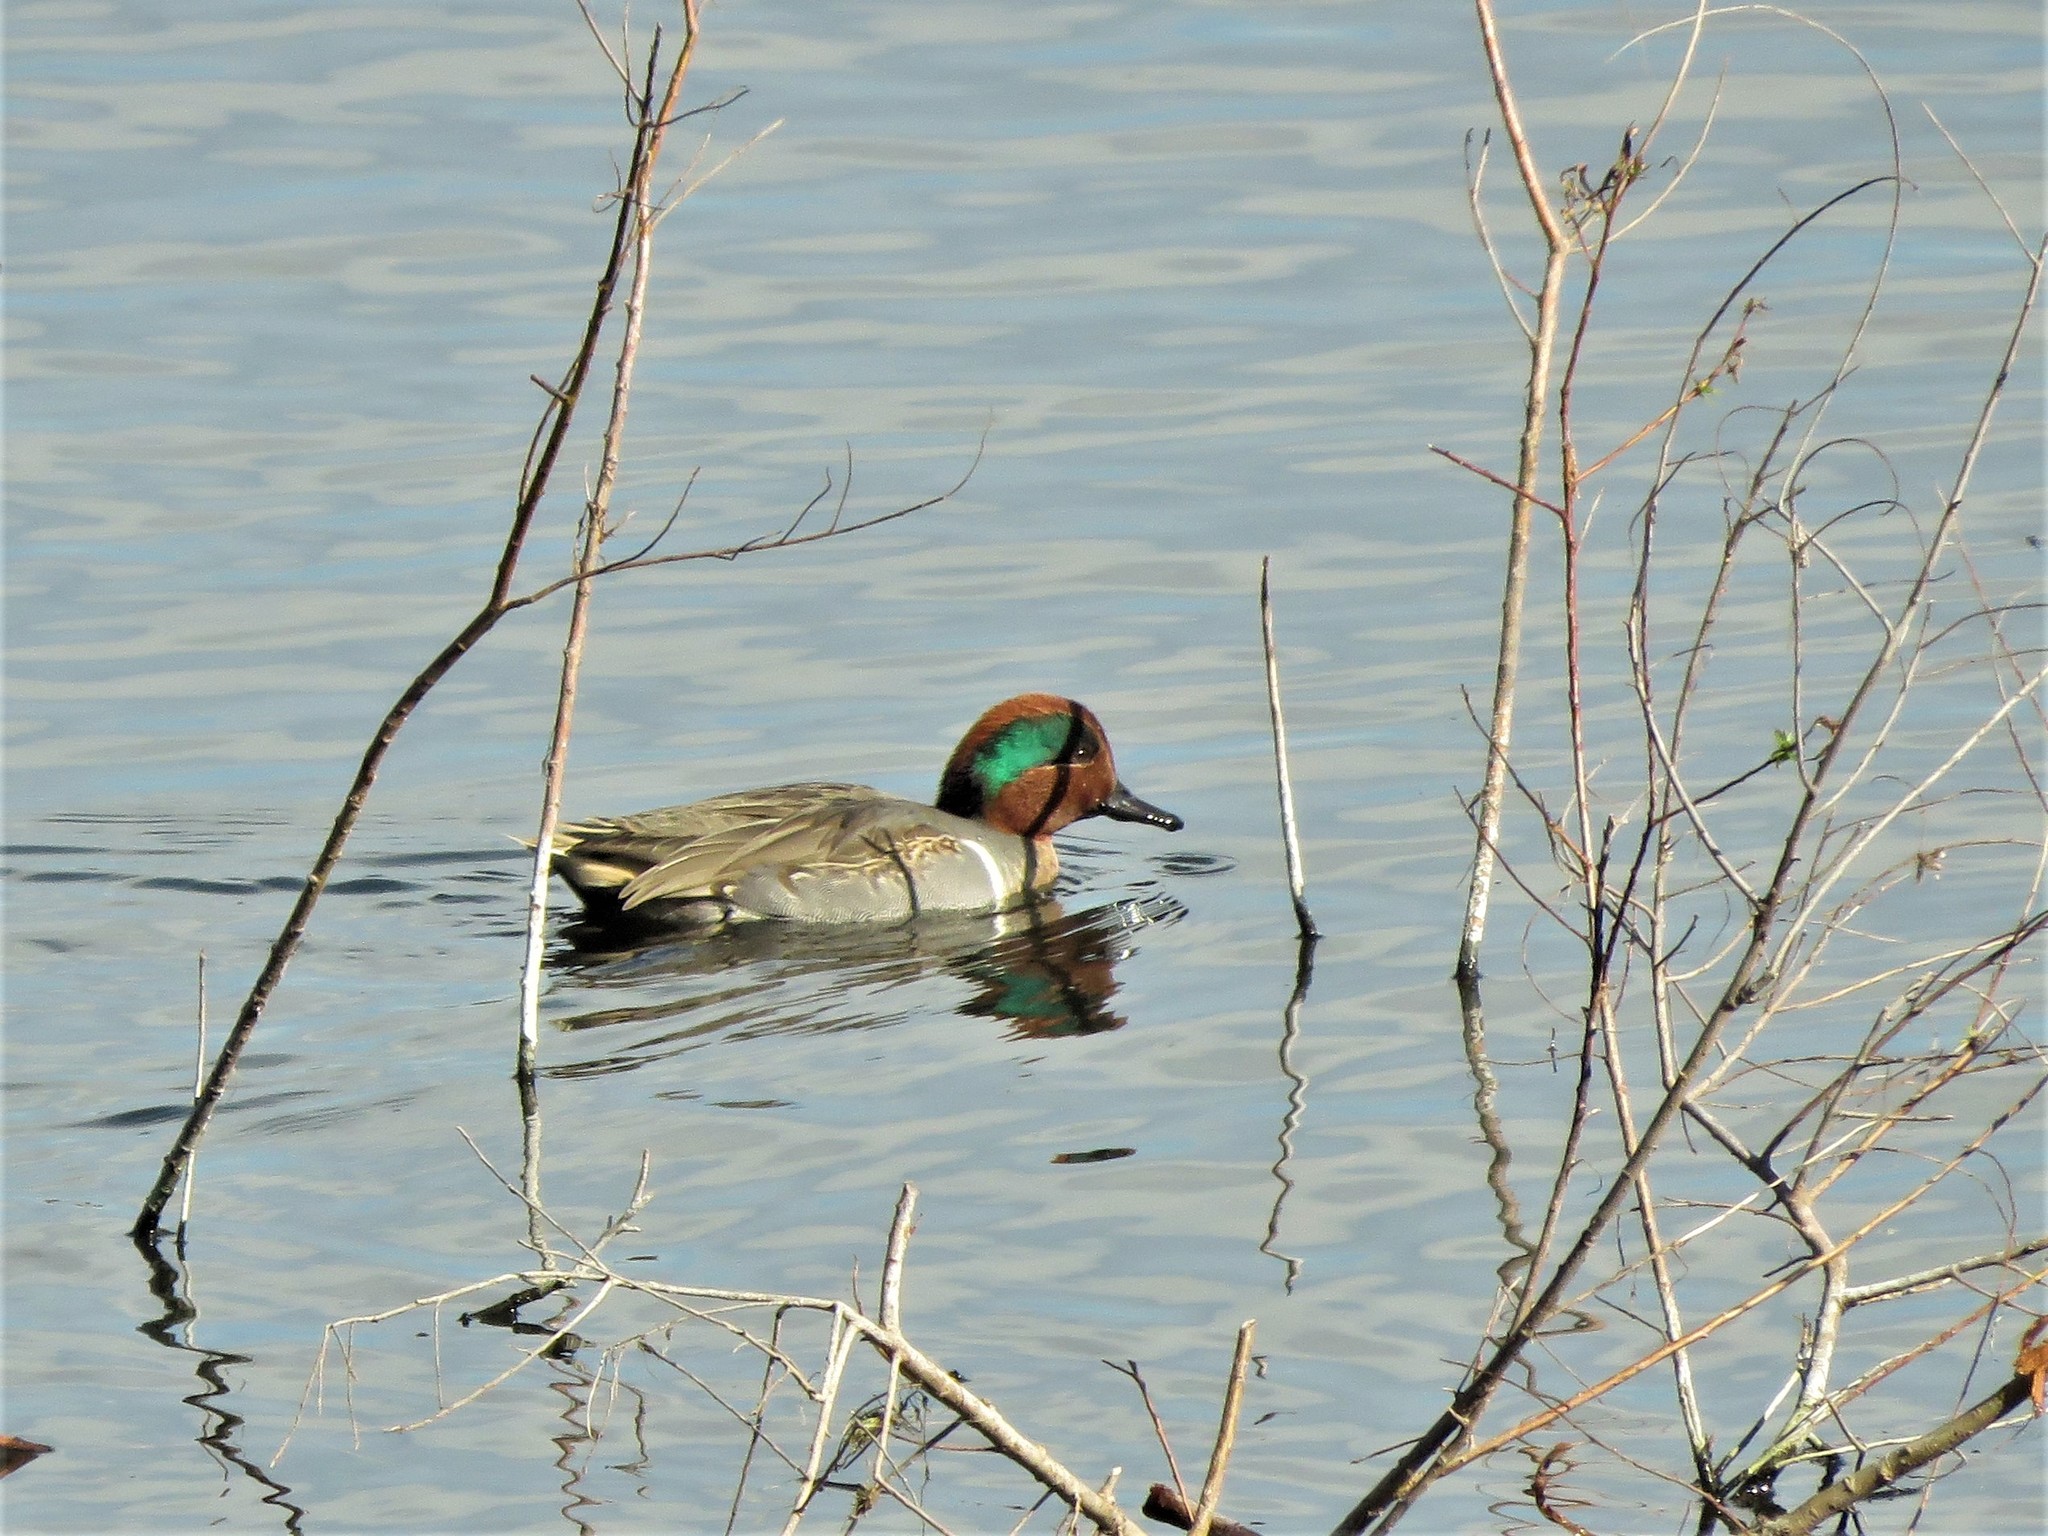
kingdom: Animalia
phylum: Chordata
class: Aves
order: Anseriformes
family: Anatidae
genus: Anas
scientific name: Anas crecca
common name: Eurasian teal
